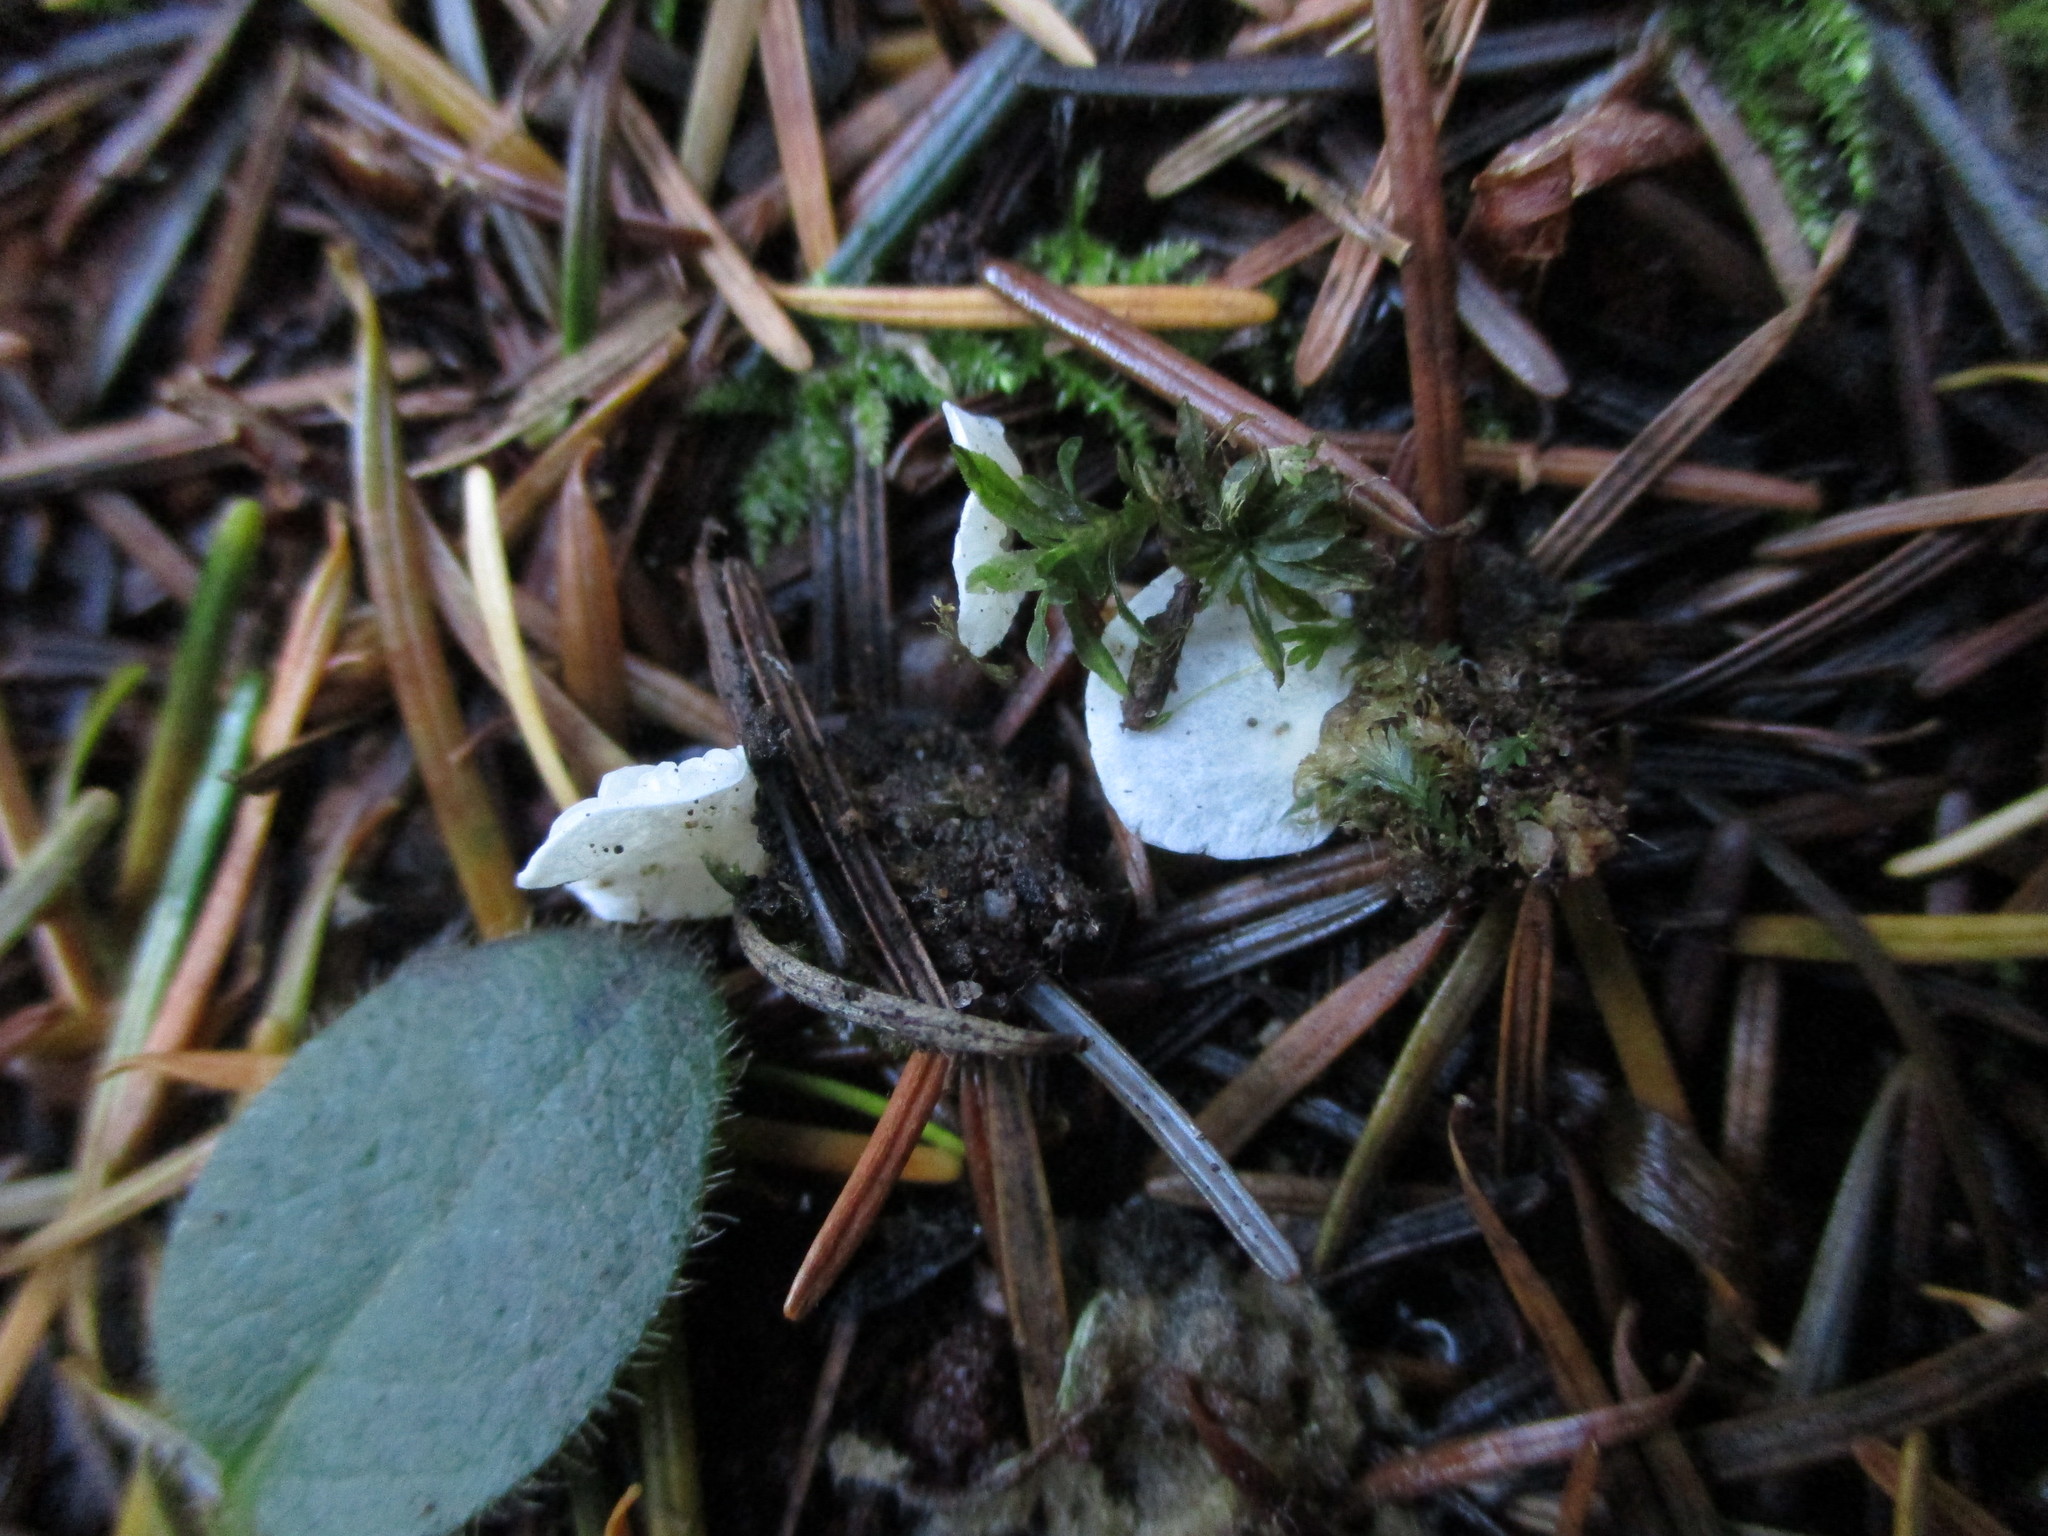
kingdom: Fungi
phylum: Basidiomycota
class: Agaricomycetes
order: Agaricales
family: Tricholomataceae
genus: Rimbachia
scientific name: Rimbachia bryophila
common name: Veined mossear
